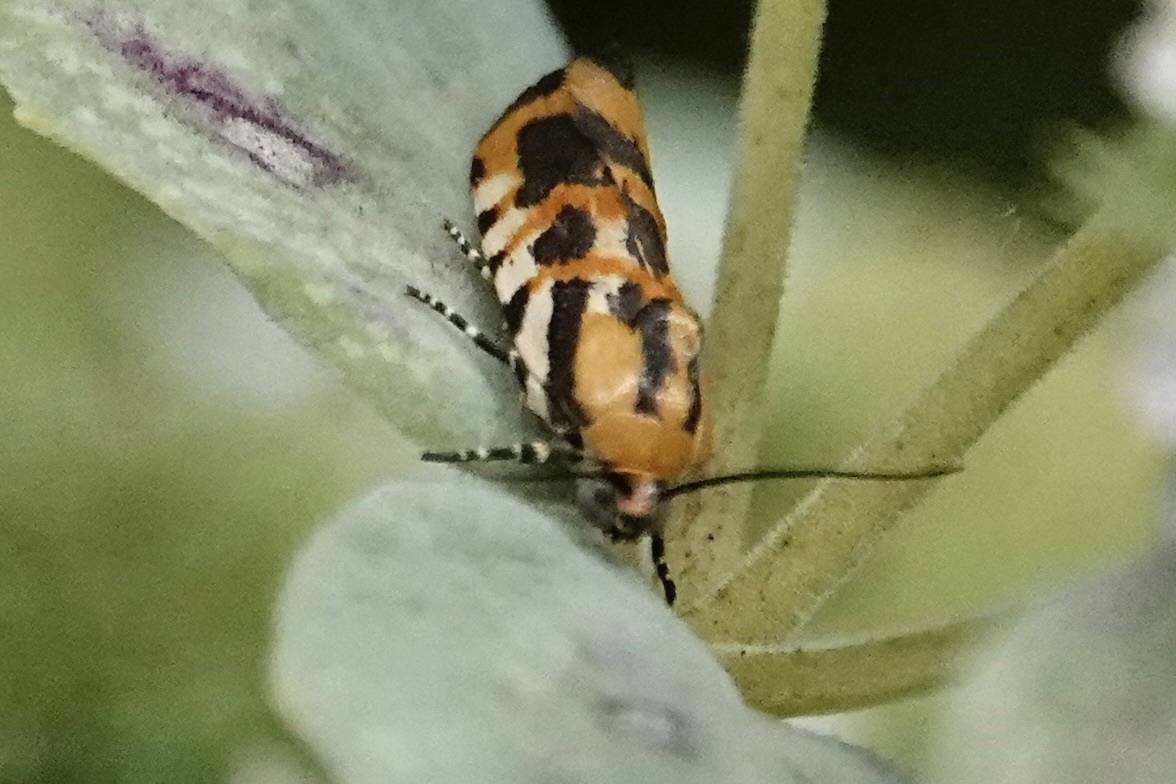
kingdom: Animalia
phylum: Arthropoda
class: Insecta
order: Lepidoptera
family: Noctuidae
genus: Acontia
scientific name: Acontia leo
